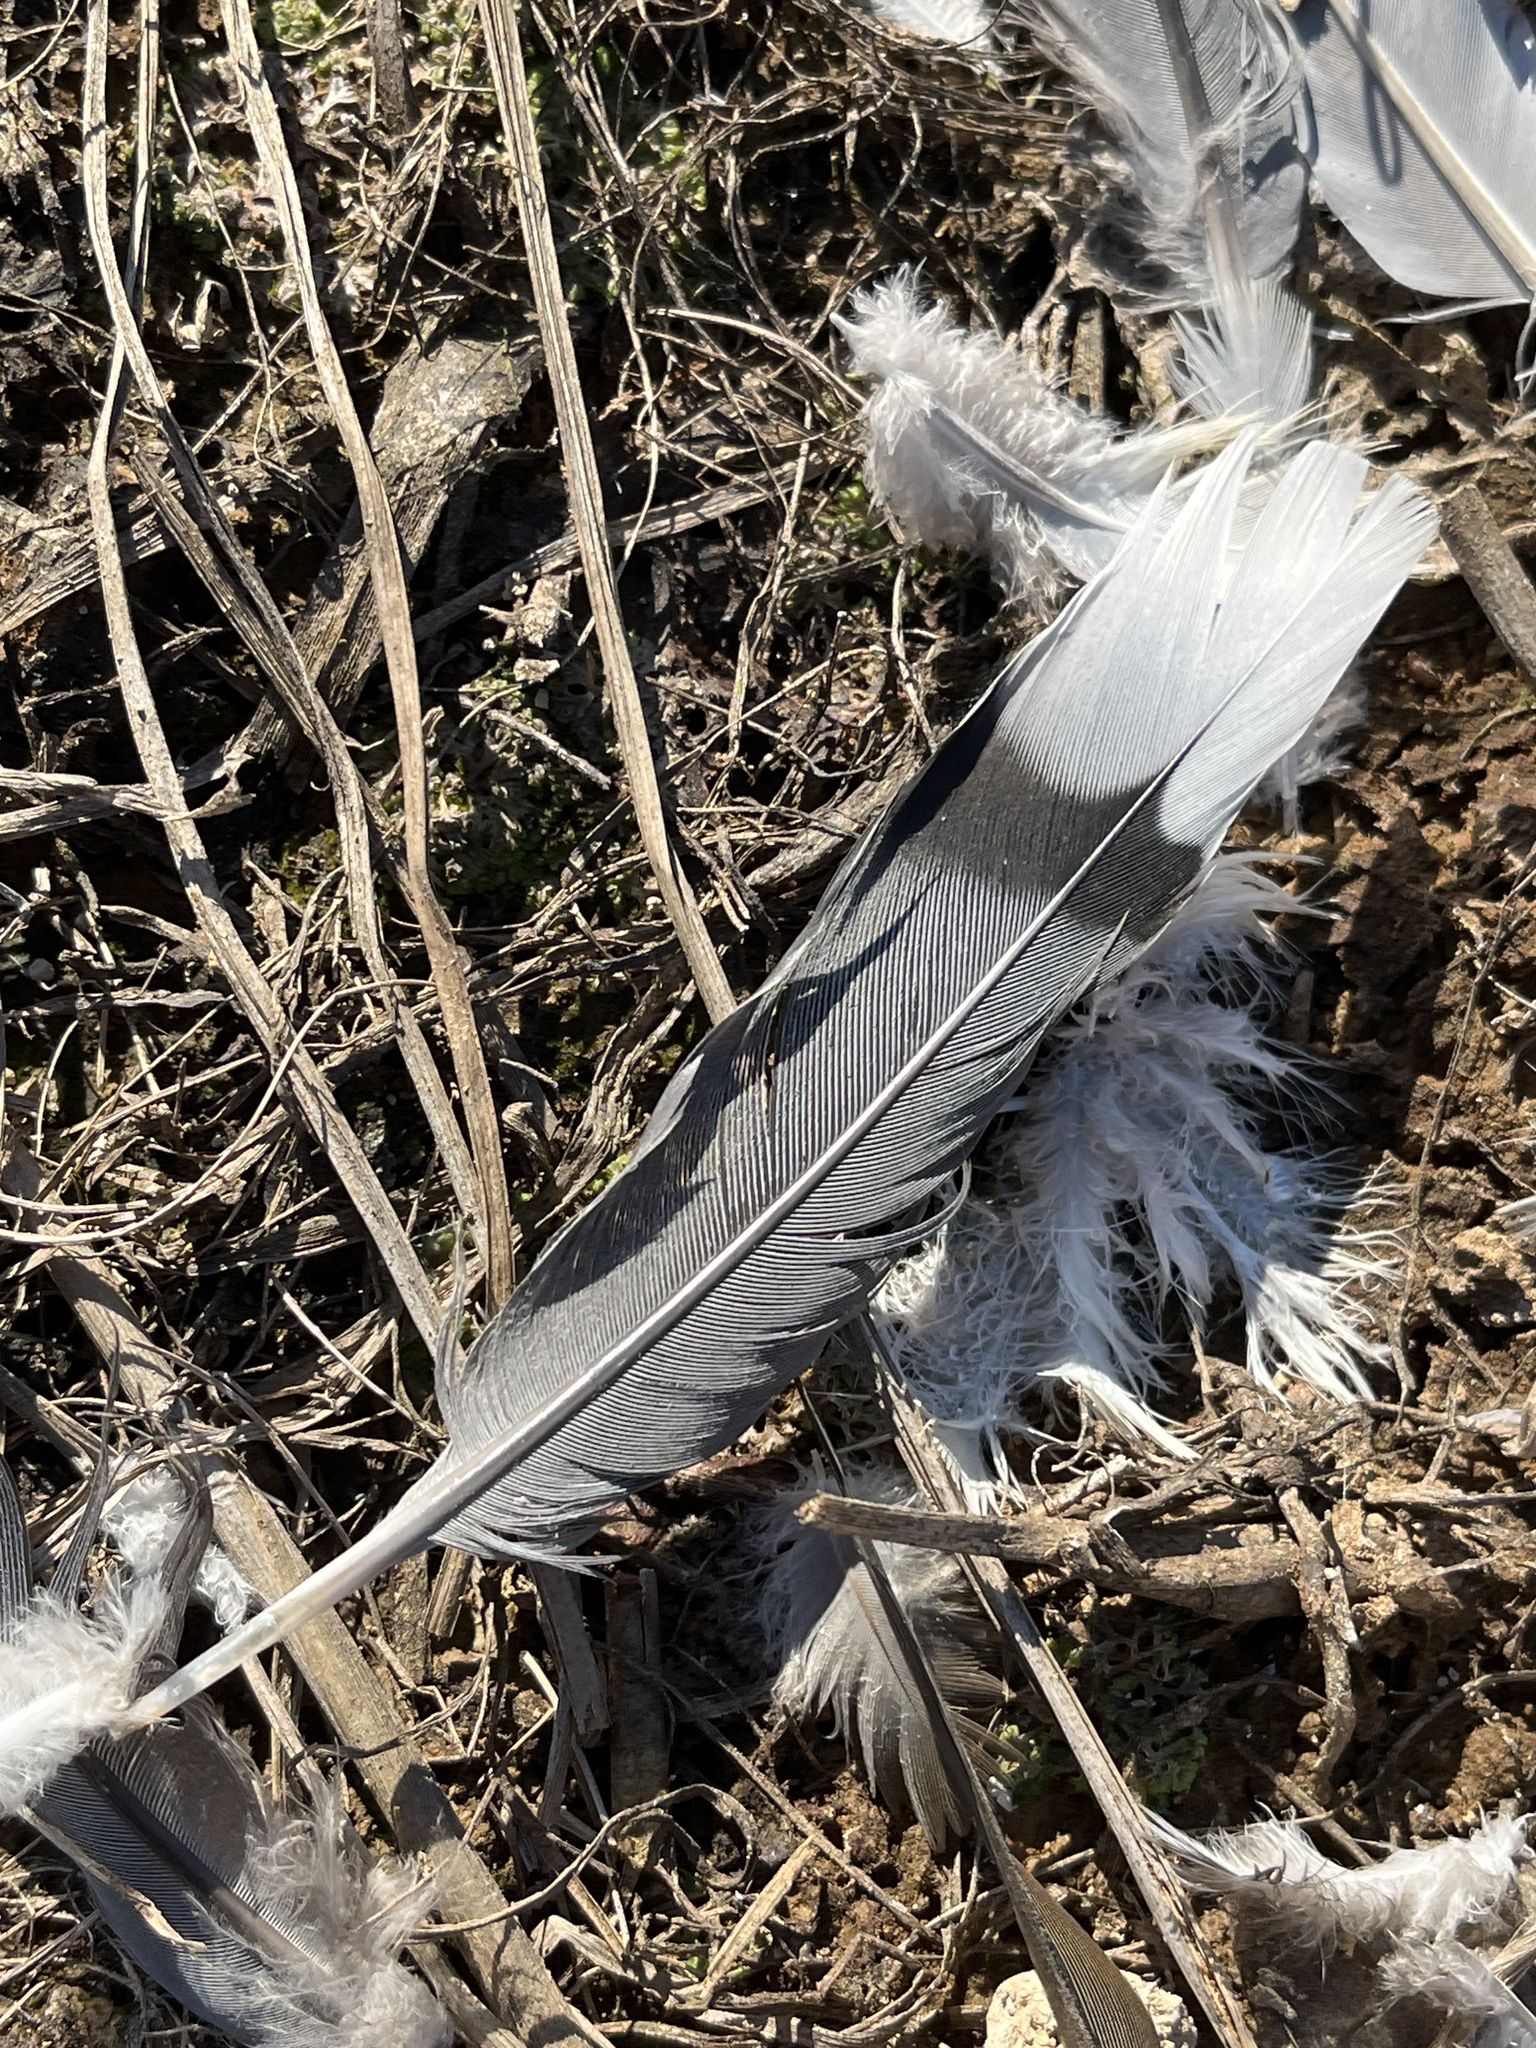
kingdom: Animalia
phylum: Chordata
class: Aves
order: Columbiformes
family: Columbidae
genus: Zenaida
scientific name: Zenaida macroura
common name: Mourning dove
